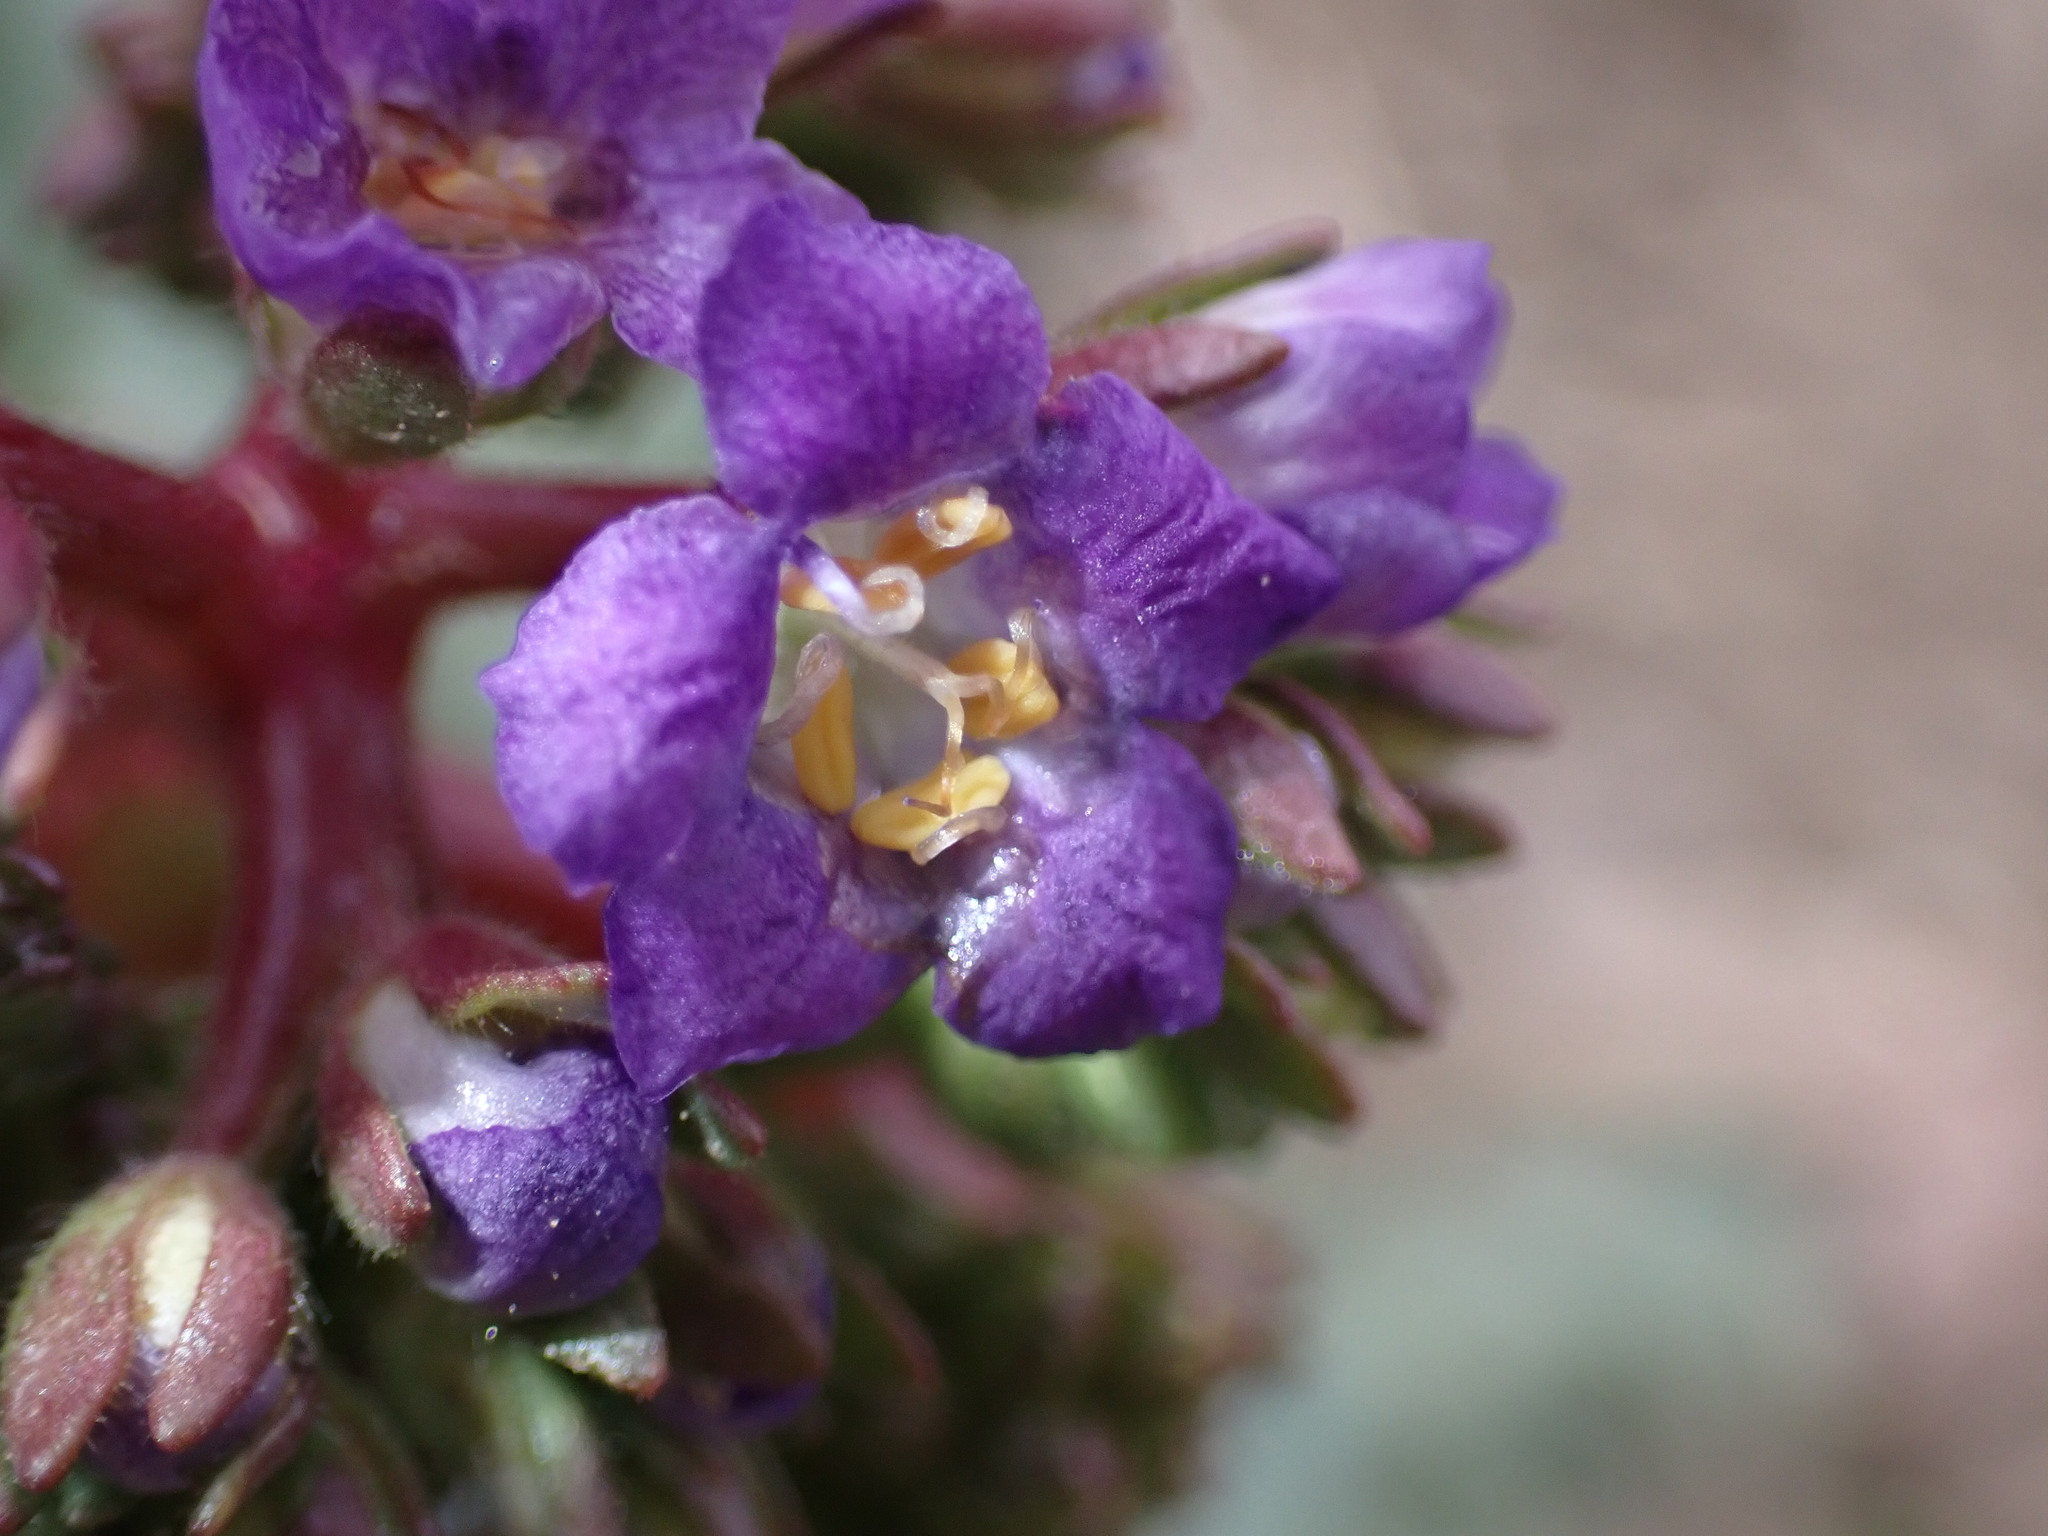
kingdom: Plantae
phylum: Tracheophyta
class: Magnoliopsida
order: Boraginales
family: Hydrophyllaceae
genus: Phacelia
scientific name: Phacelia splendens
